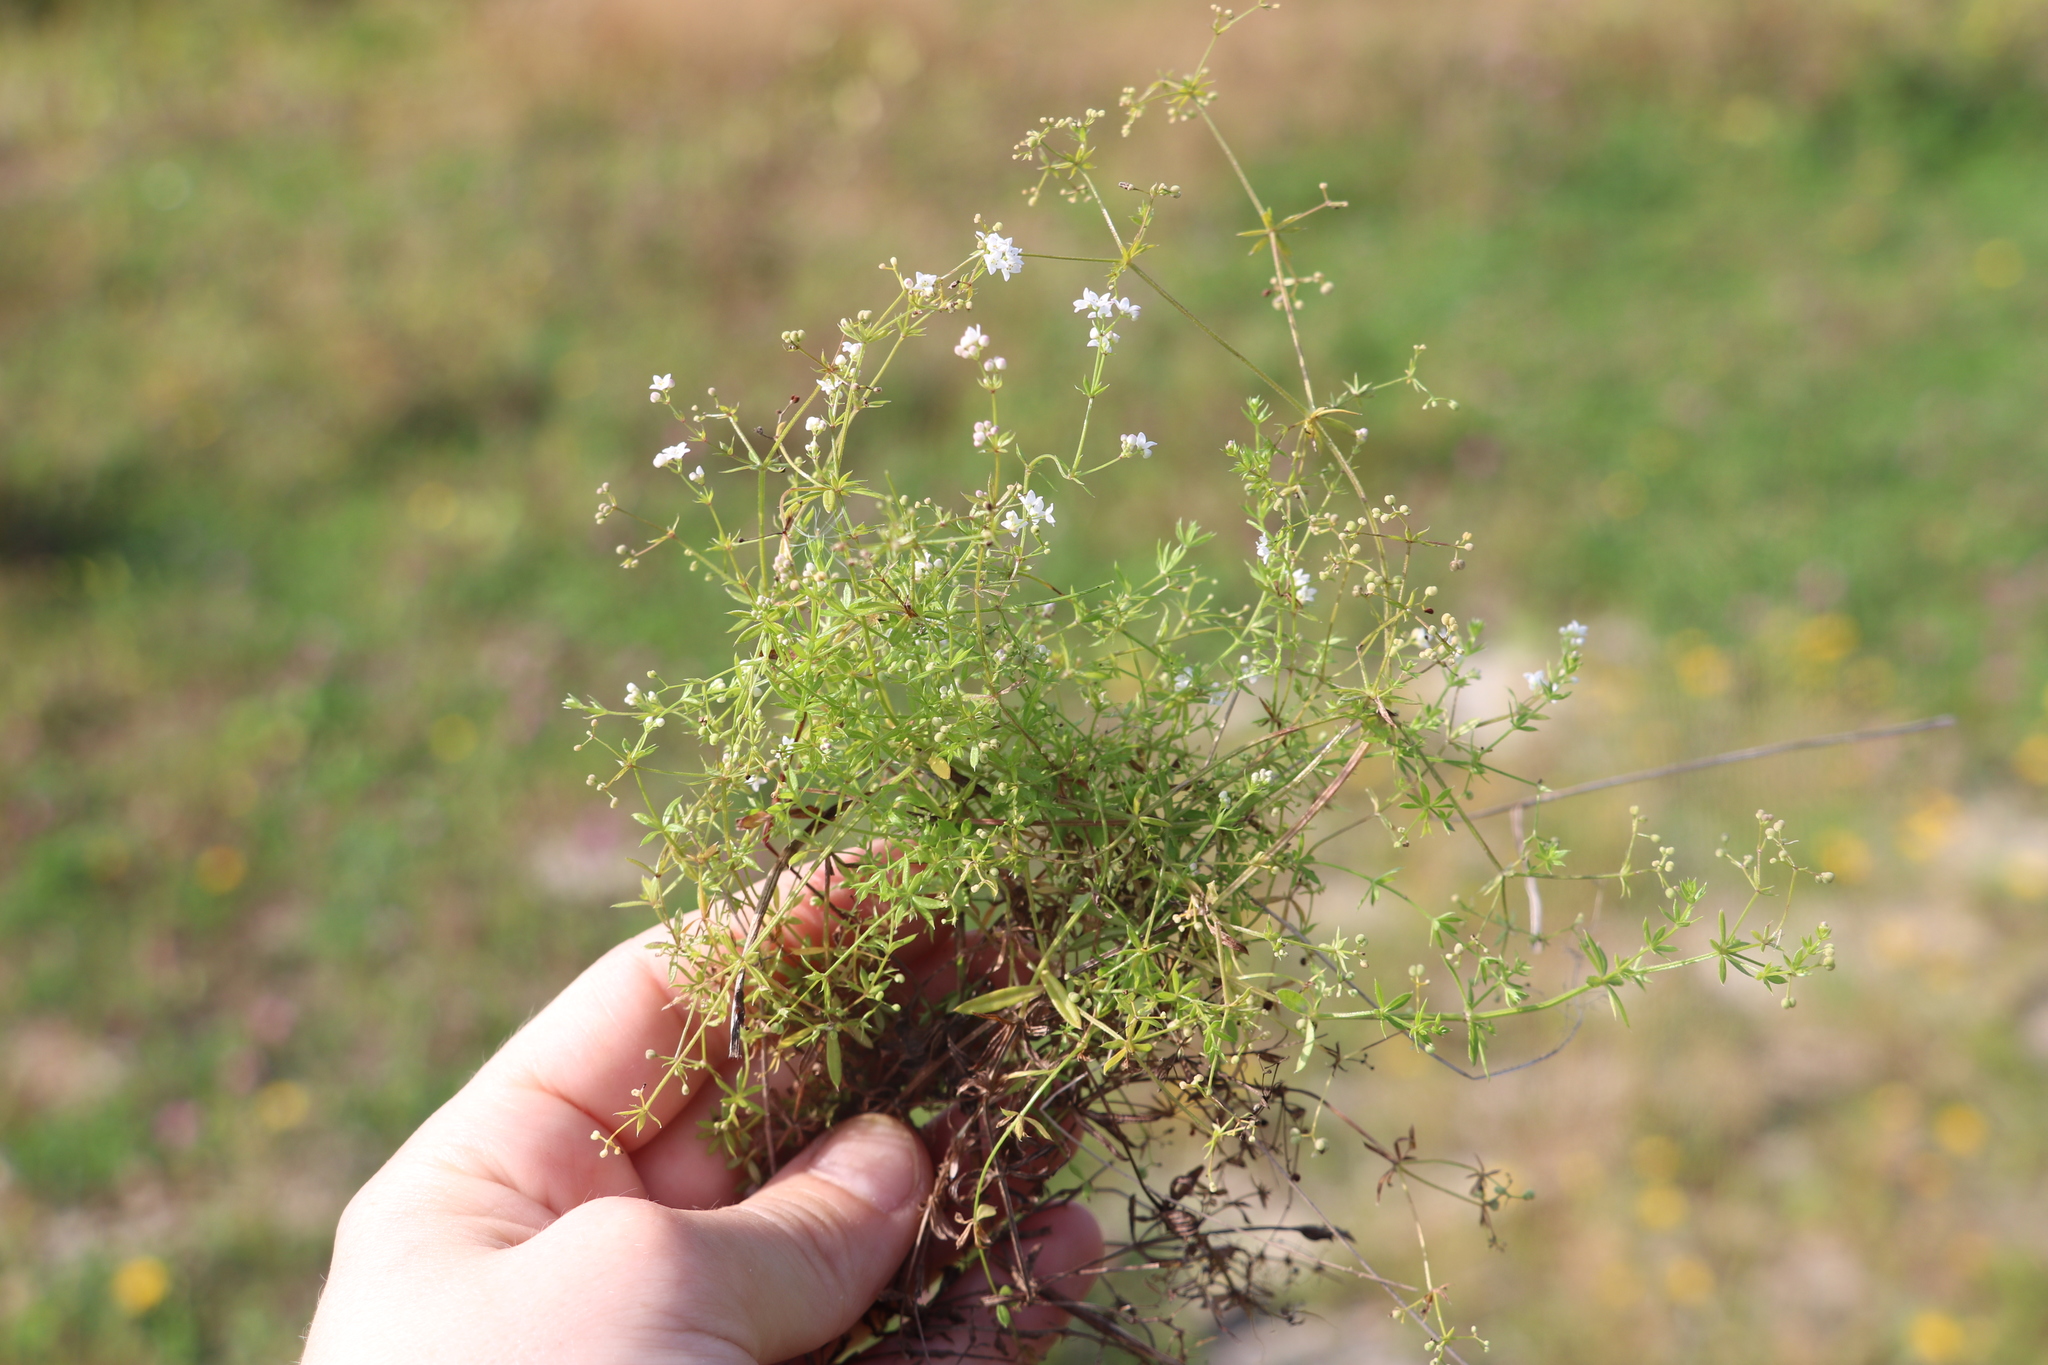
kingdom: Plantae
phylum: Tracheophyta
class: Magnoliopsida
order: Gentianales
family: Rubiaceae
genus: Galium
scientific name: Galium uliginosum
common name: Fen bedstraw
